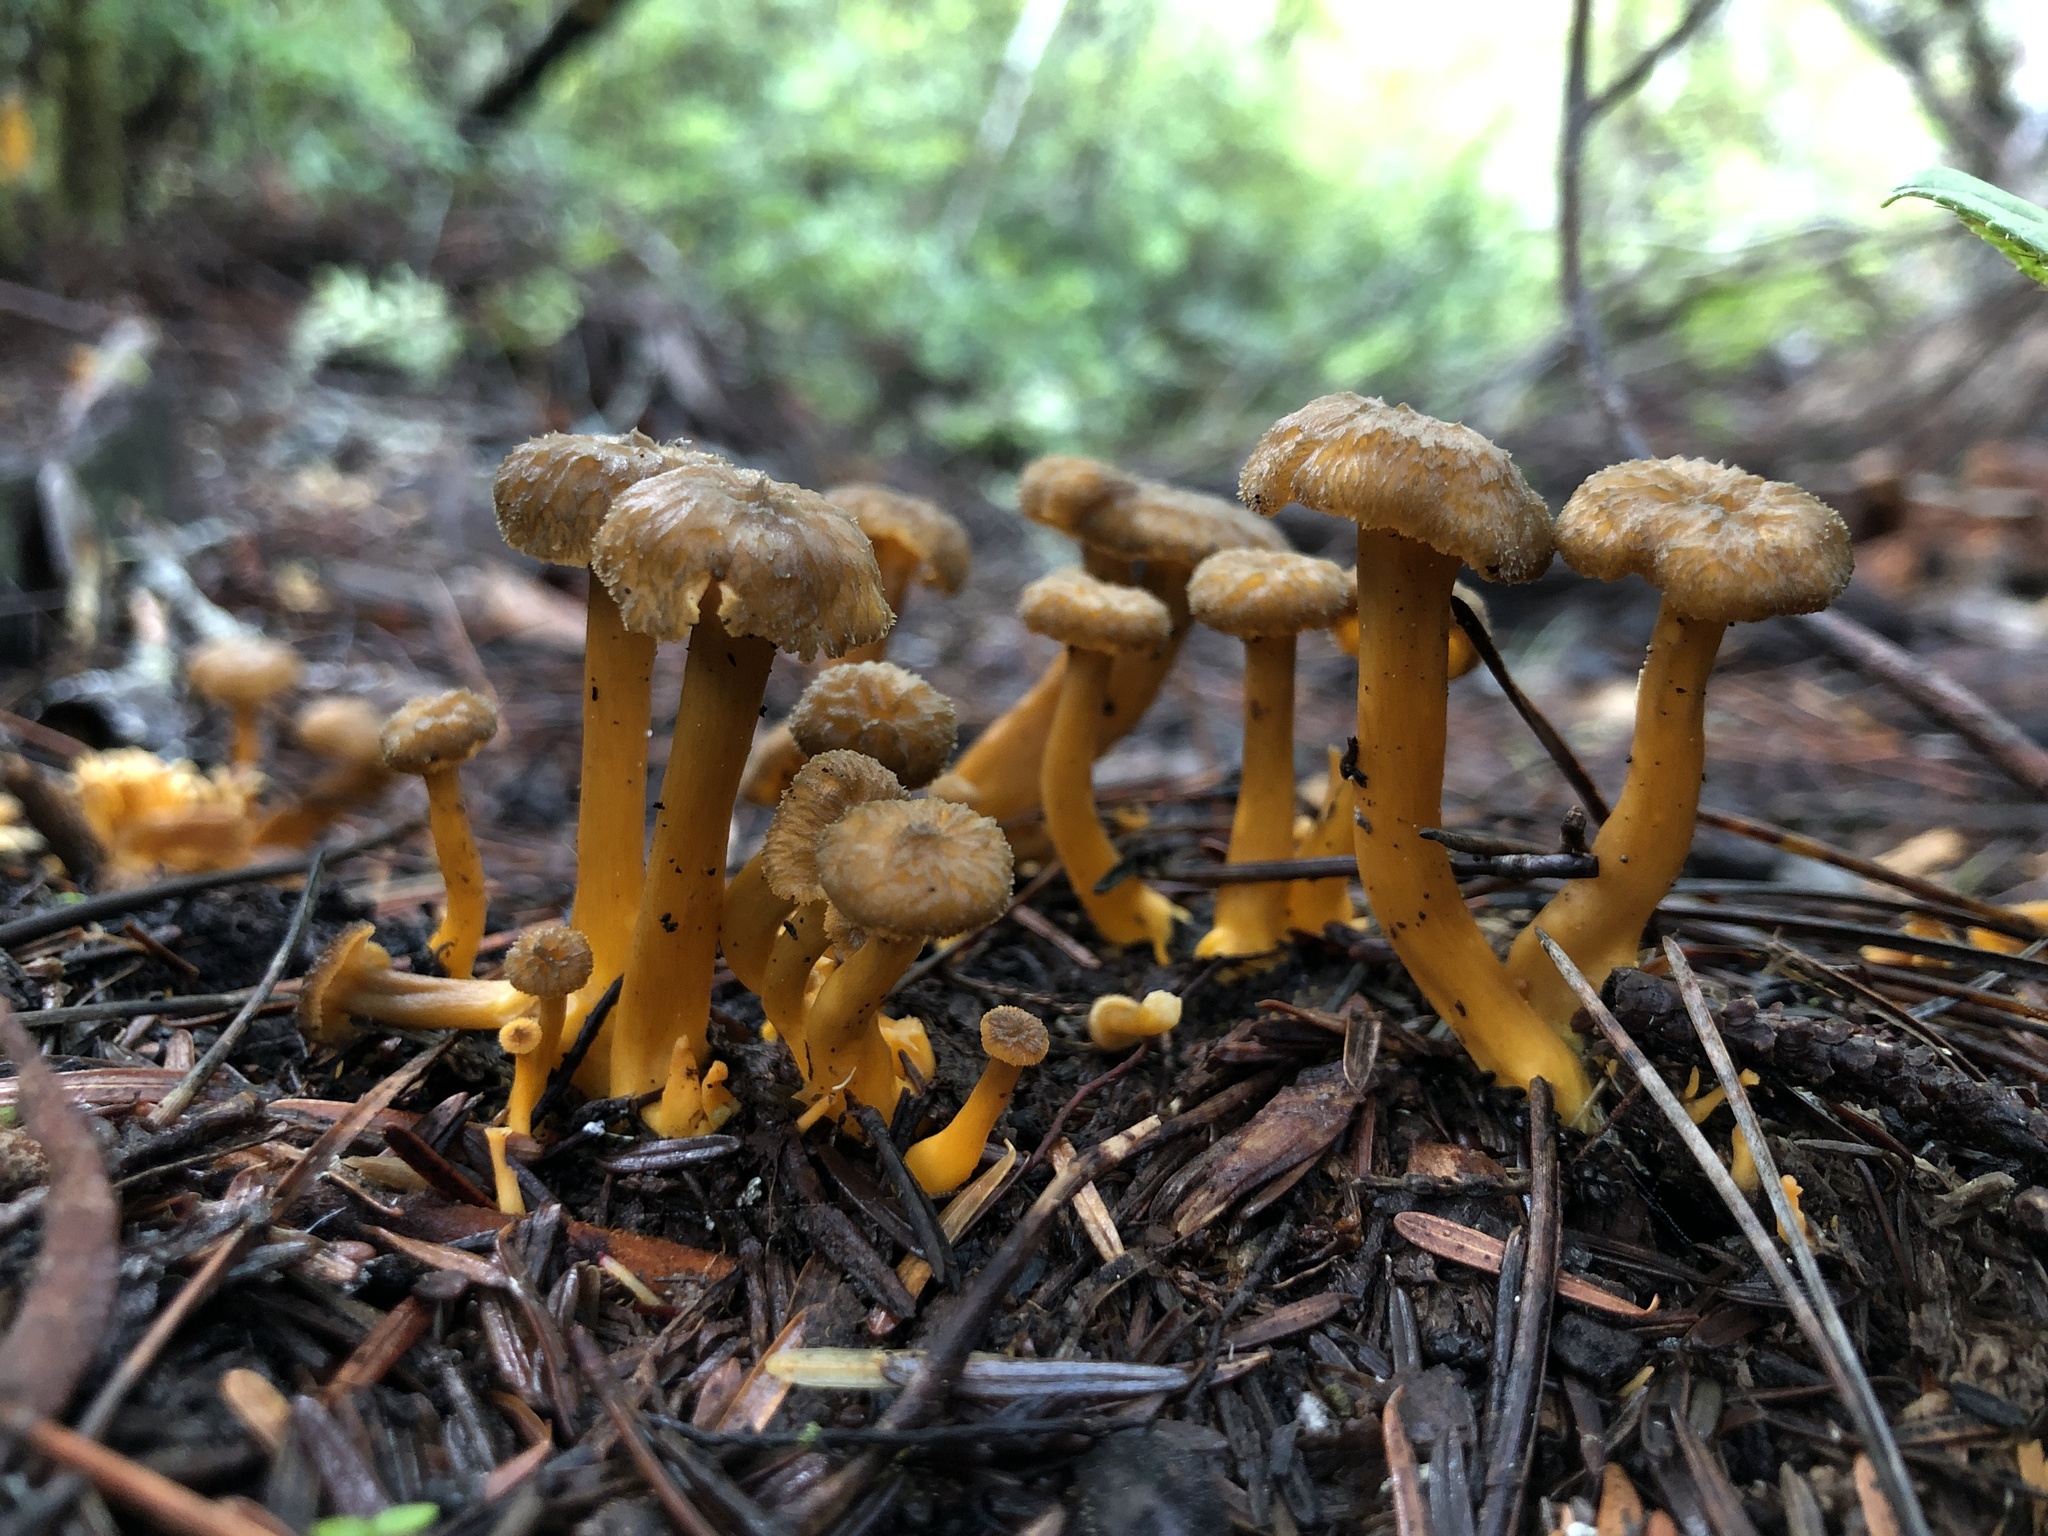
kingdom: Fungi
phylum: Basidiomycota
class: Agaricomycetes
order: Cantharellales
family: Hydnaceae
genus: Craterellus
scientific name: Craterellus tubaeformis
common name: Yellowfoot
